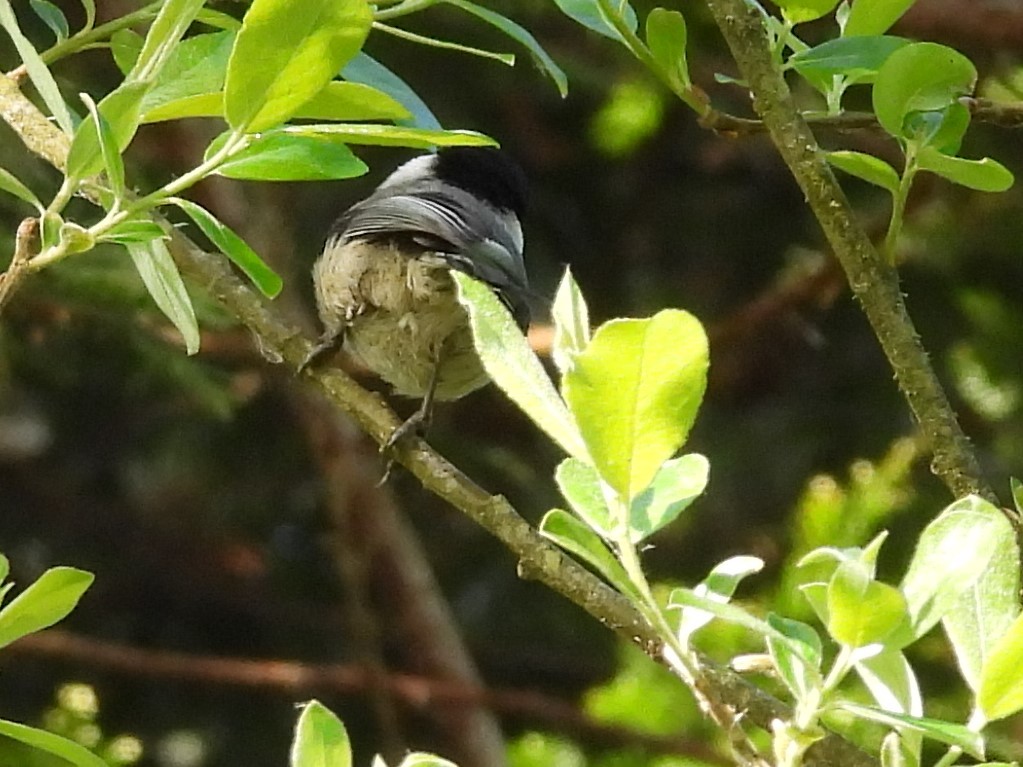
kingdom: Animalia
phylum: Chordata
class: Aves
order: Passeriformes
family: Paridae
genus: Poecile
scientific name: Poecile atricapillus
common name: Black-capped chickadee
